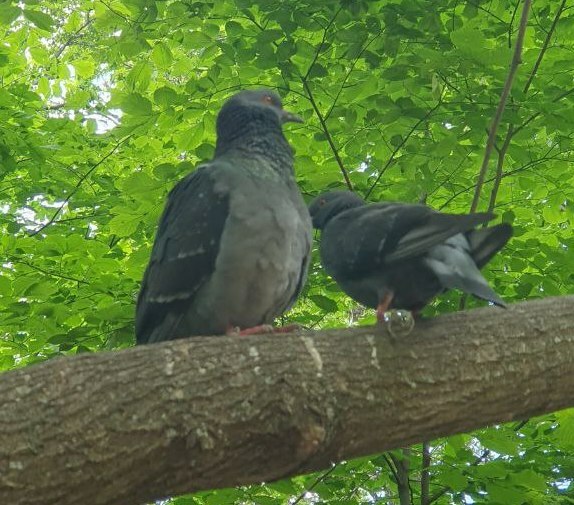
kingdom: Animalia
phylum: Chordata
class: Aves
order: Columbiformes
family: Columbidae
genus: Columba
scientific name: Columba livia
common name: Rock pigeon
